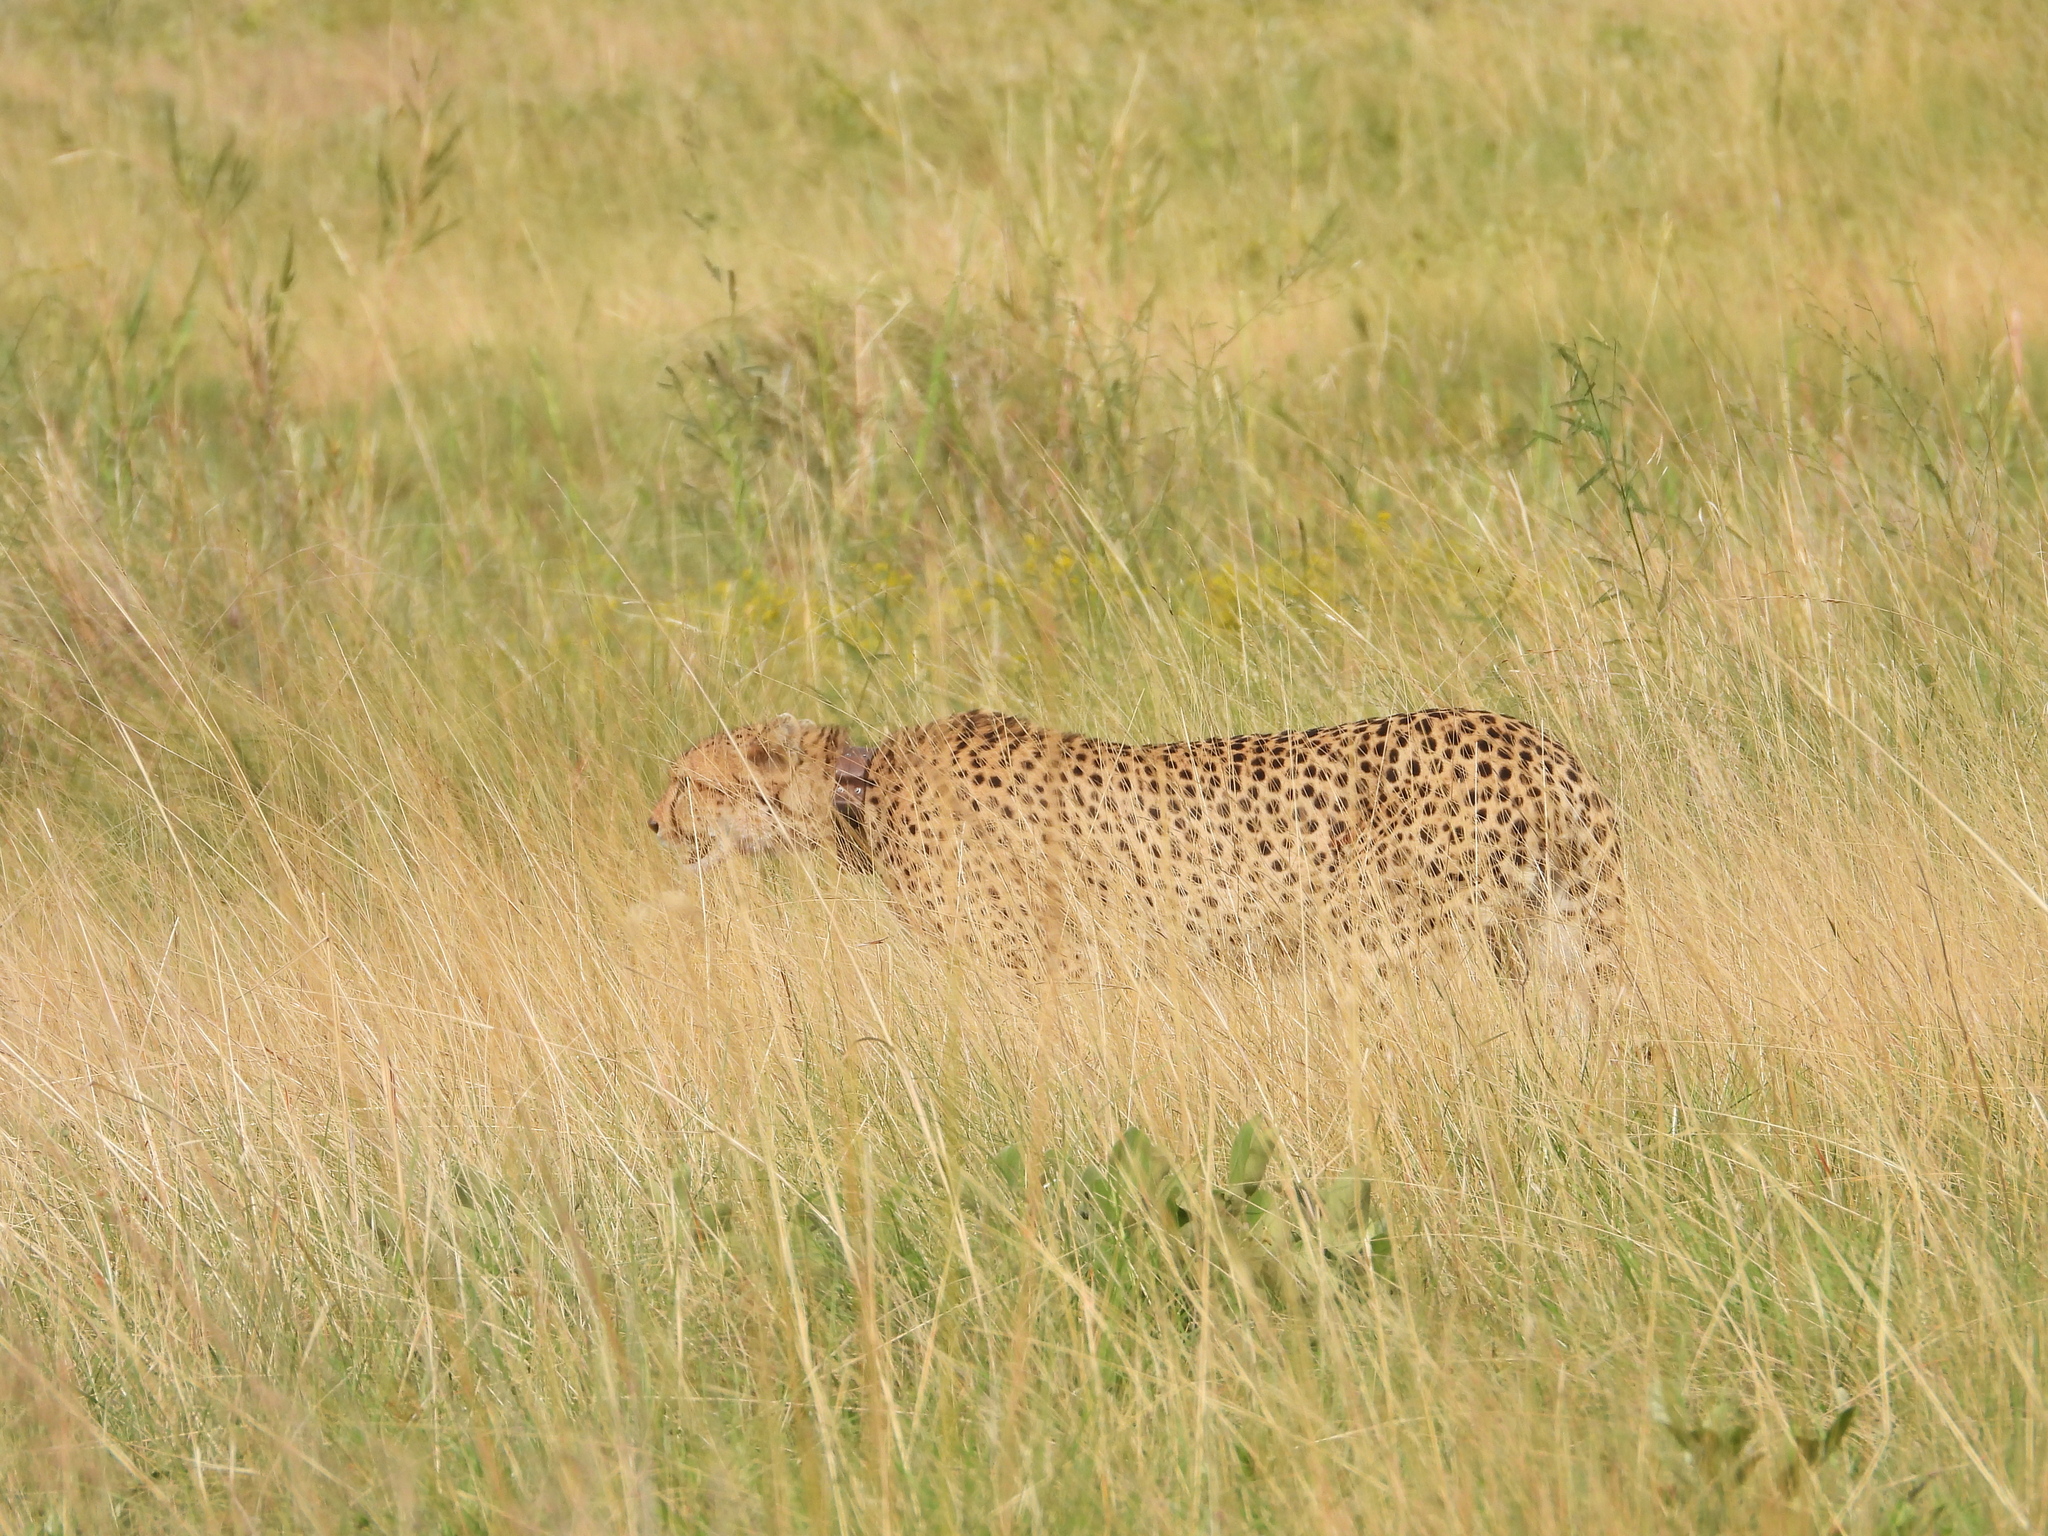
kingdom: Animalia
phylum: Chordata
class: Mammalia
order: Carnivora
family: Felidae
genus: Acinonyx
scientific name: Acinonyx jubatus
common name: Cheetah
